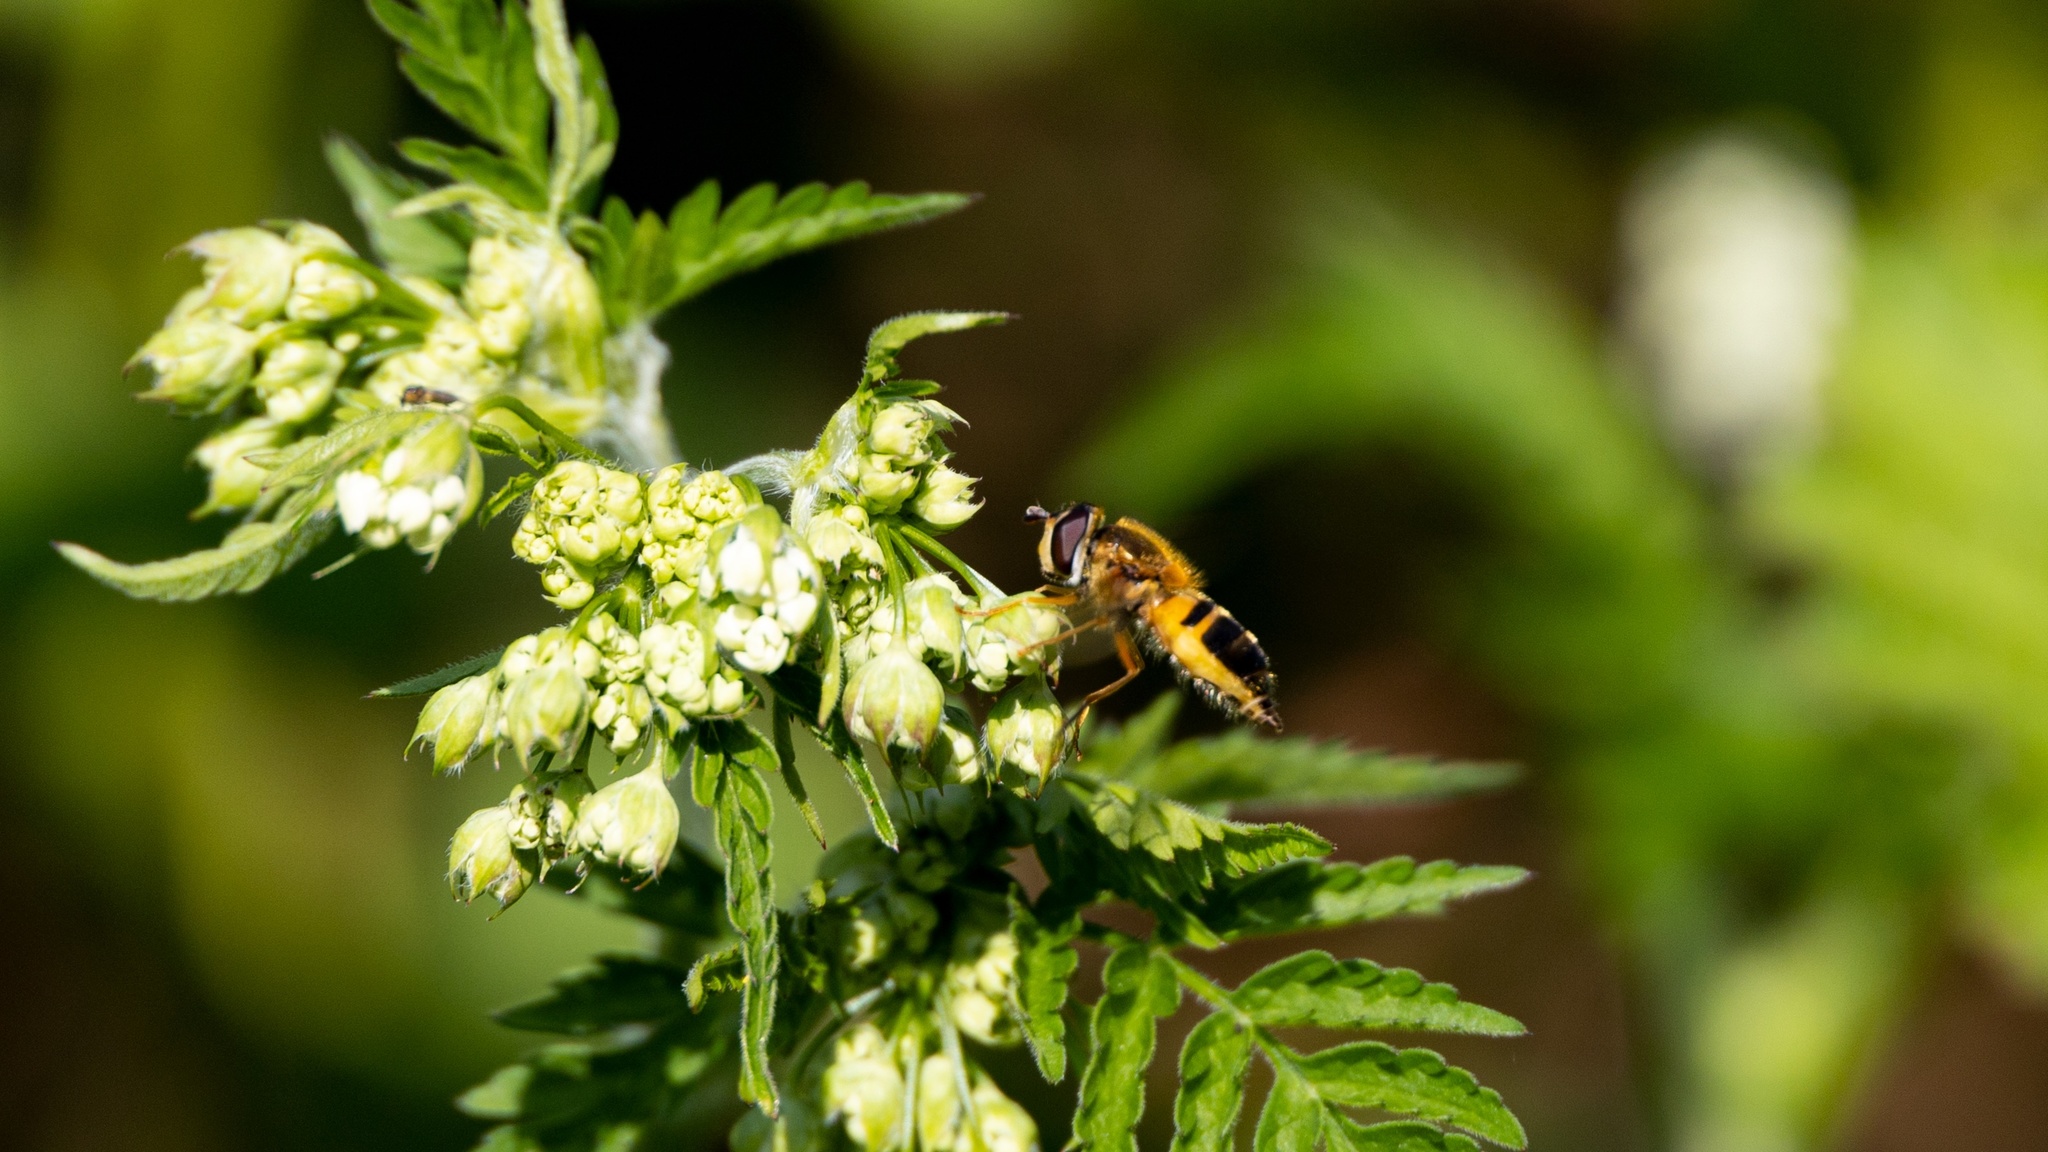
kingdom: Animalia
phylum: Arthropoda
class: Insecta
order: Diptera
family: Syrphidae
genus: Epistrophe
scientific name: Epistrophe eligans
